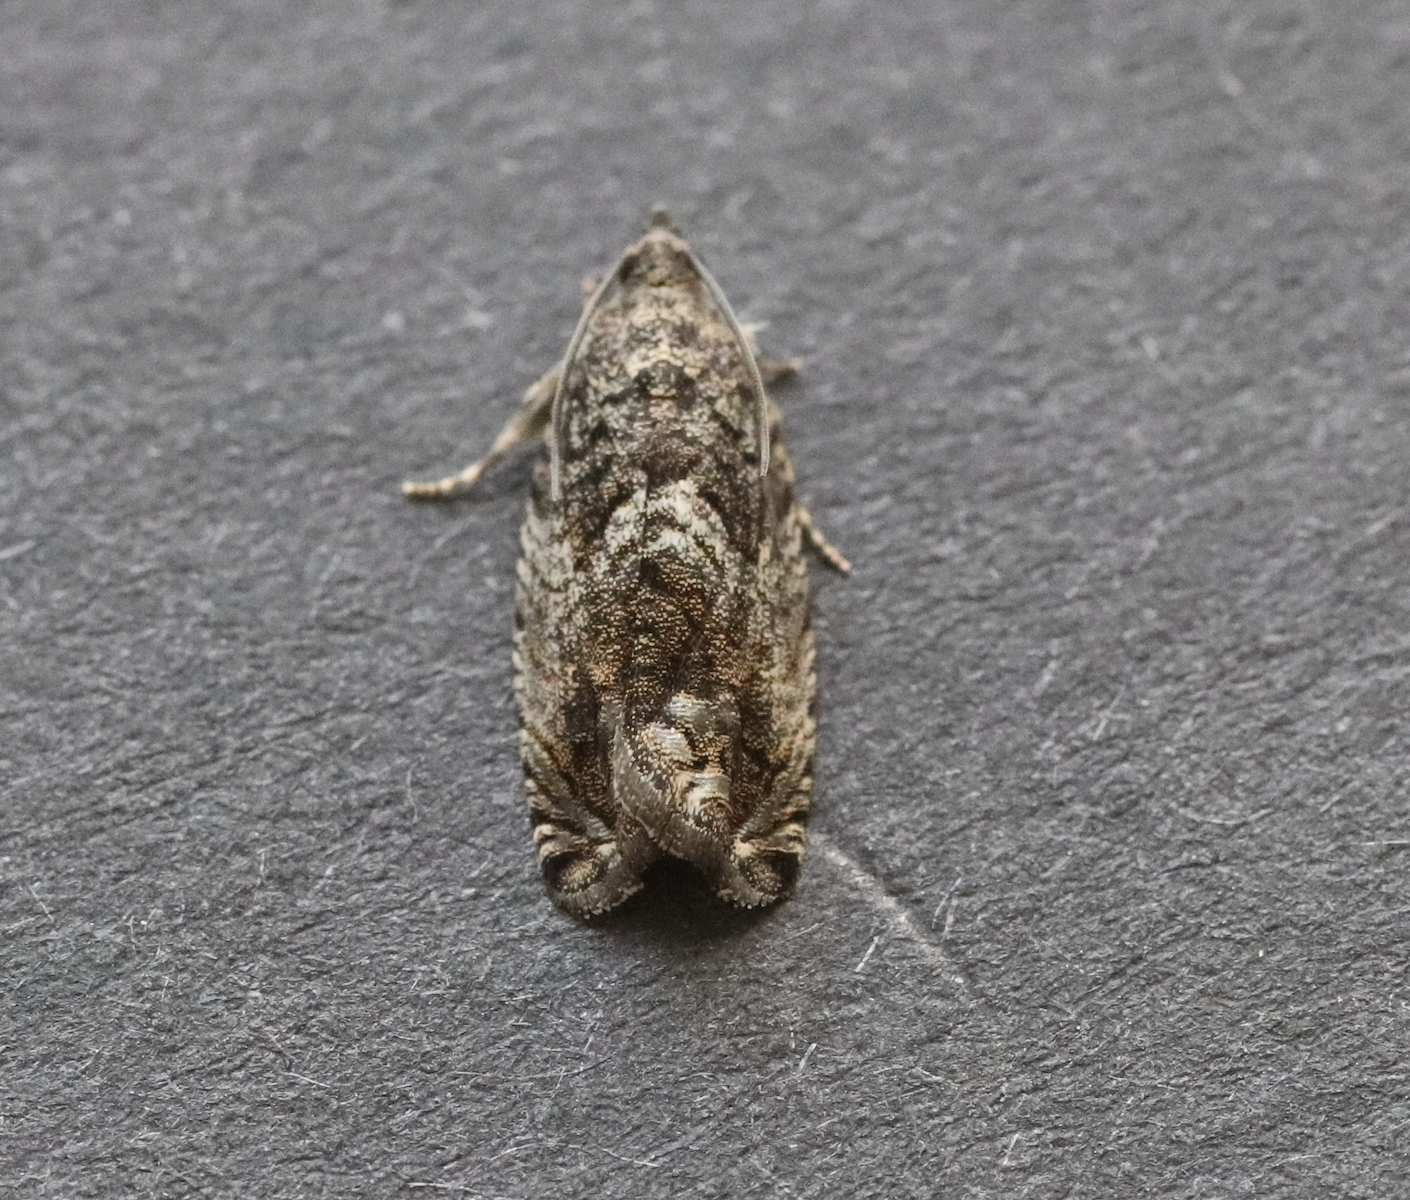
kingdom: Animalia
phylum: Arthropoda
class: Insecta
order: Lepidoptera
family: Tortricidae
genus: Cydia
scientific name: Cydia fagiglandana
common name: Large beech piercer
